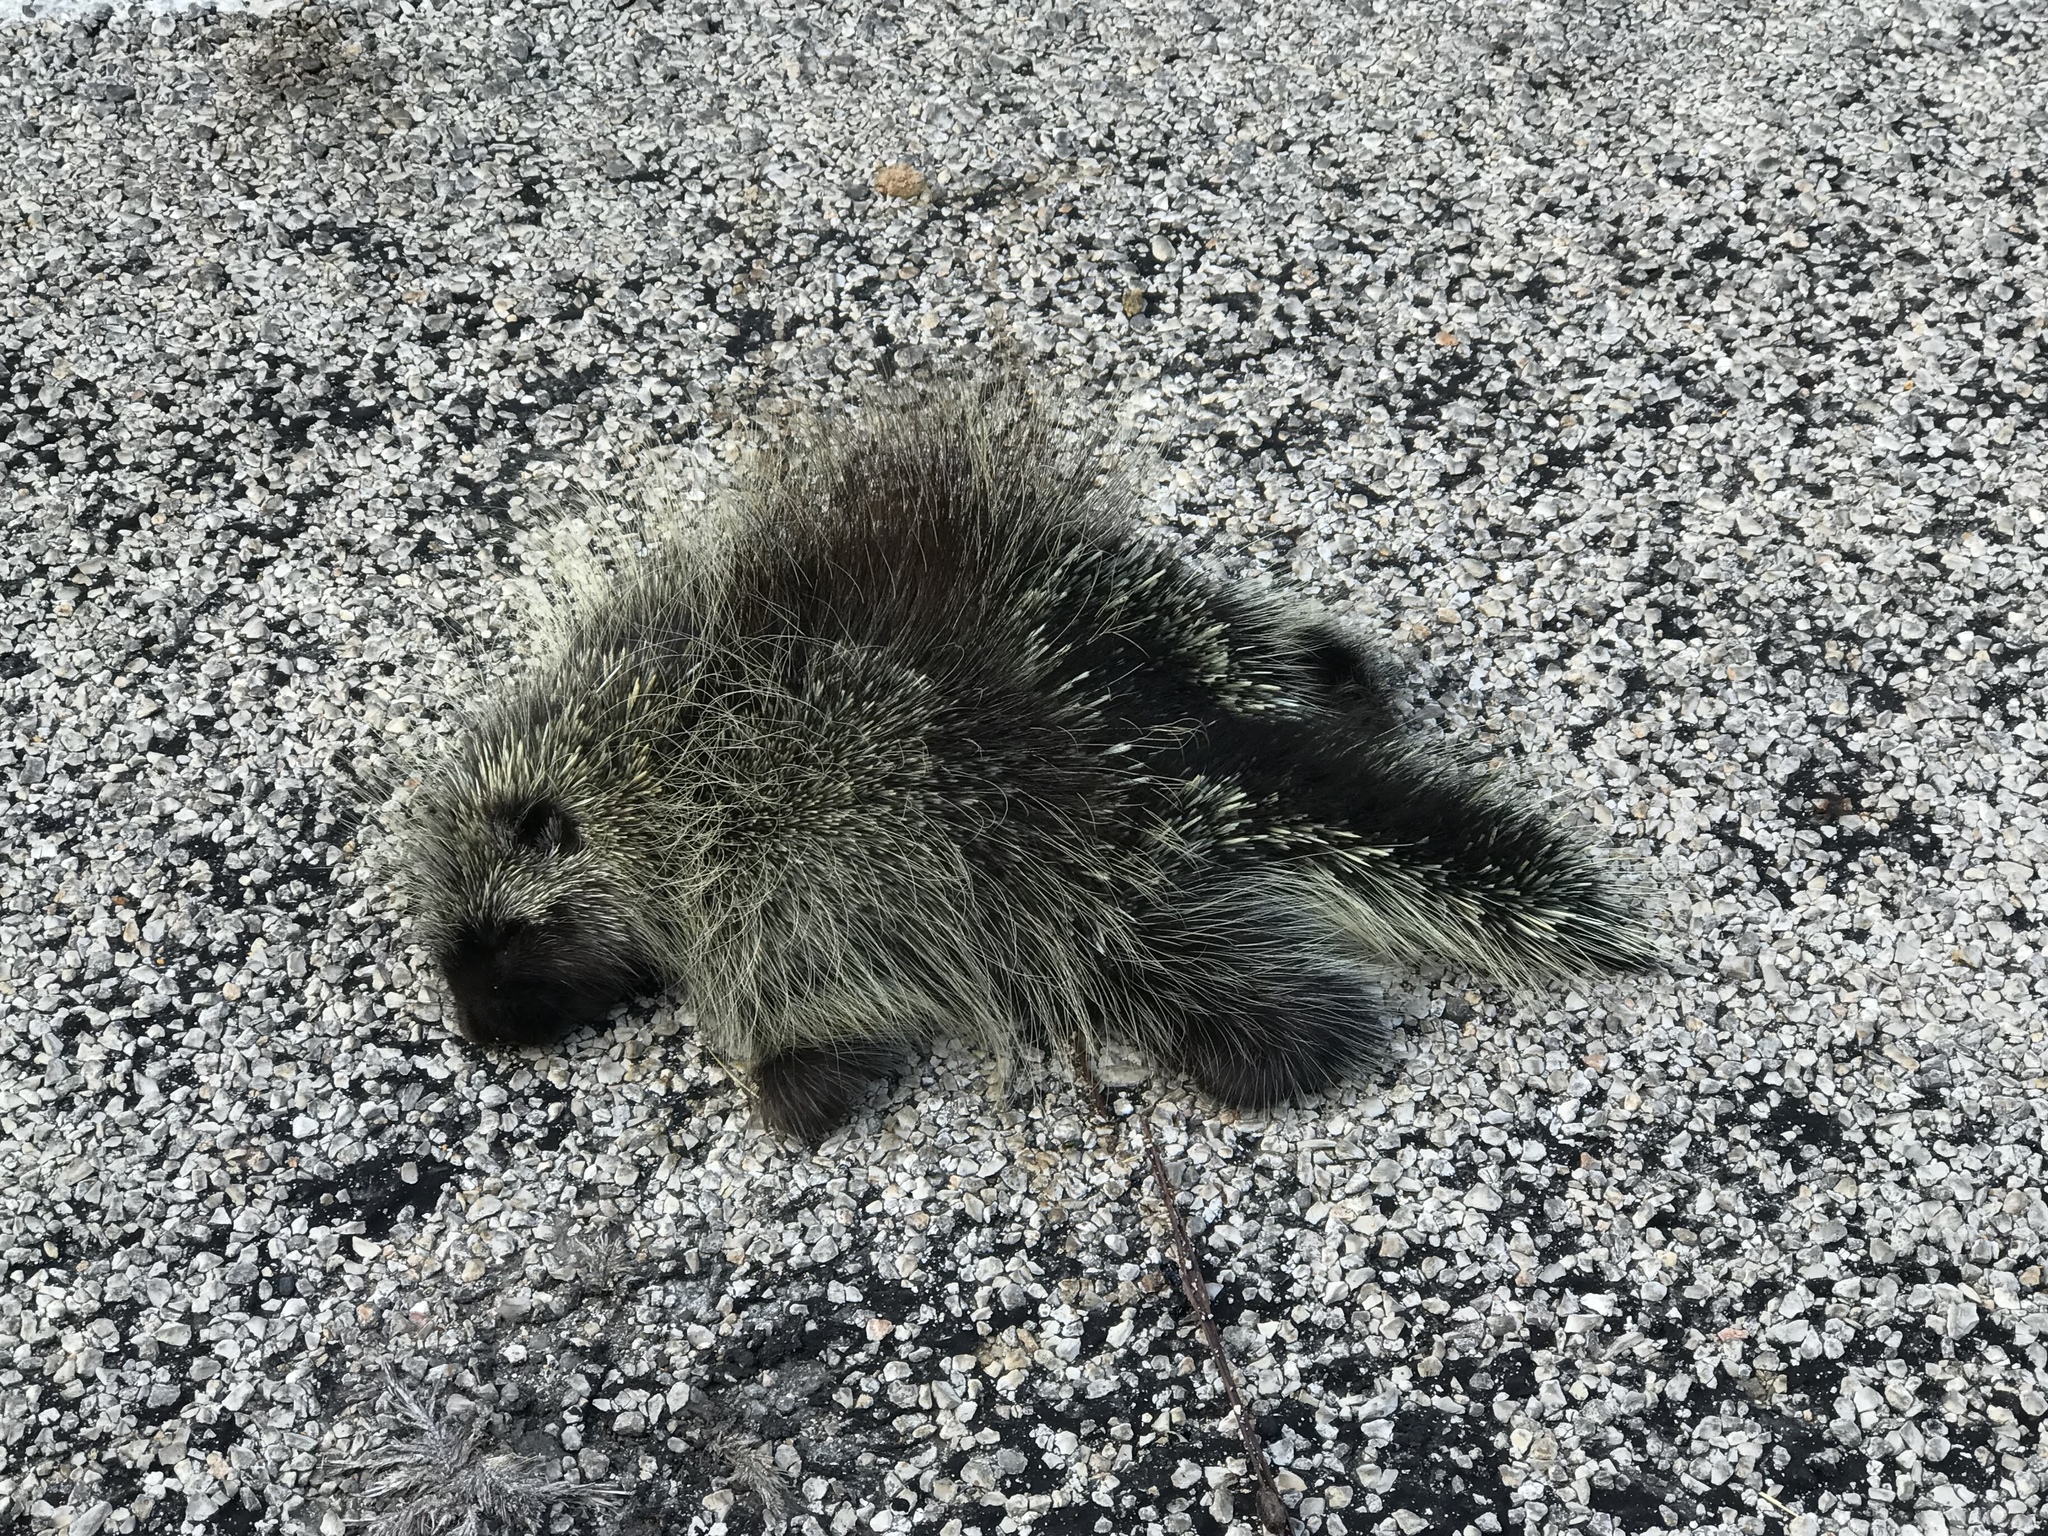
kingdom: Animalia
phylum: Chordata
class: Mammalia
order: Rodentia
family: Erethizontidae
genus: Erethizon
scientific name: Erethizon dorsatus
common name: North american porcupine
